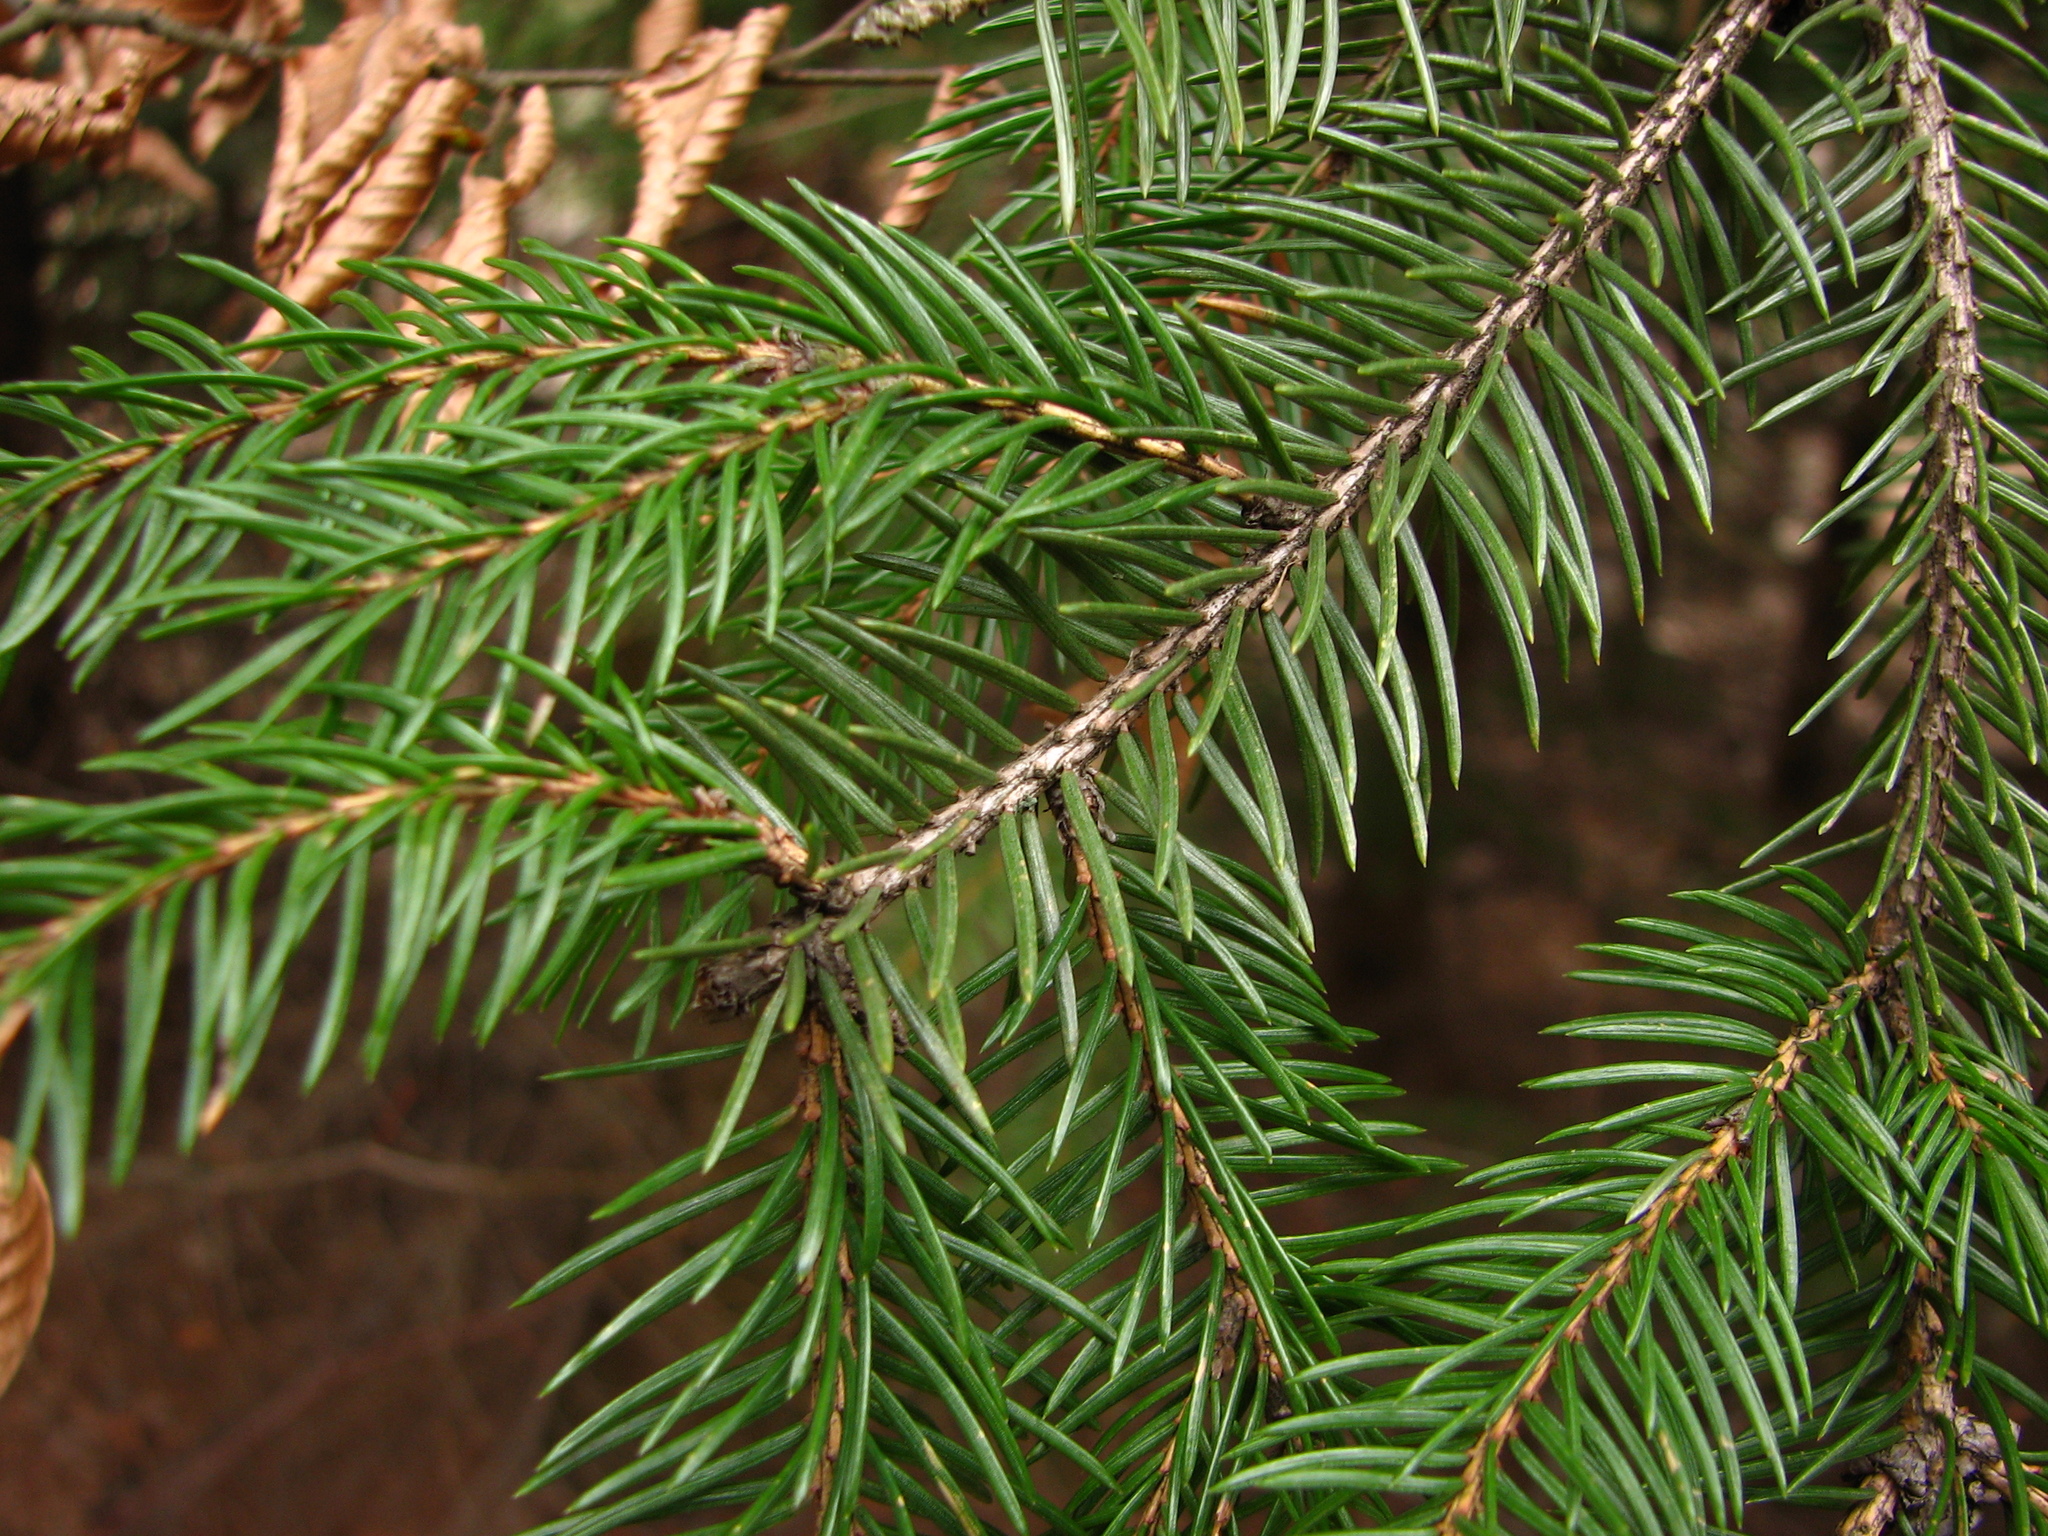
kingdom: Plantae
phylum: Tracheophyta
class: Pinopsida
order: Pinales
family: Pinaceae
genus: Picea
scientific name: Picea abies
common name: Norway spruce
